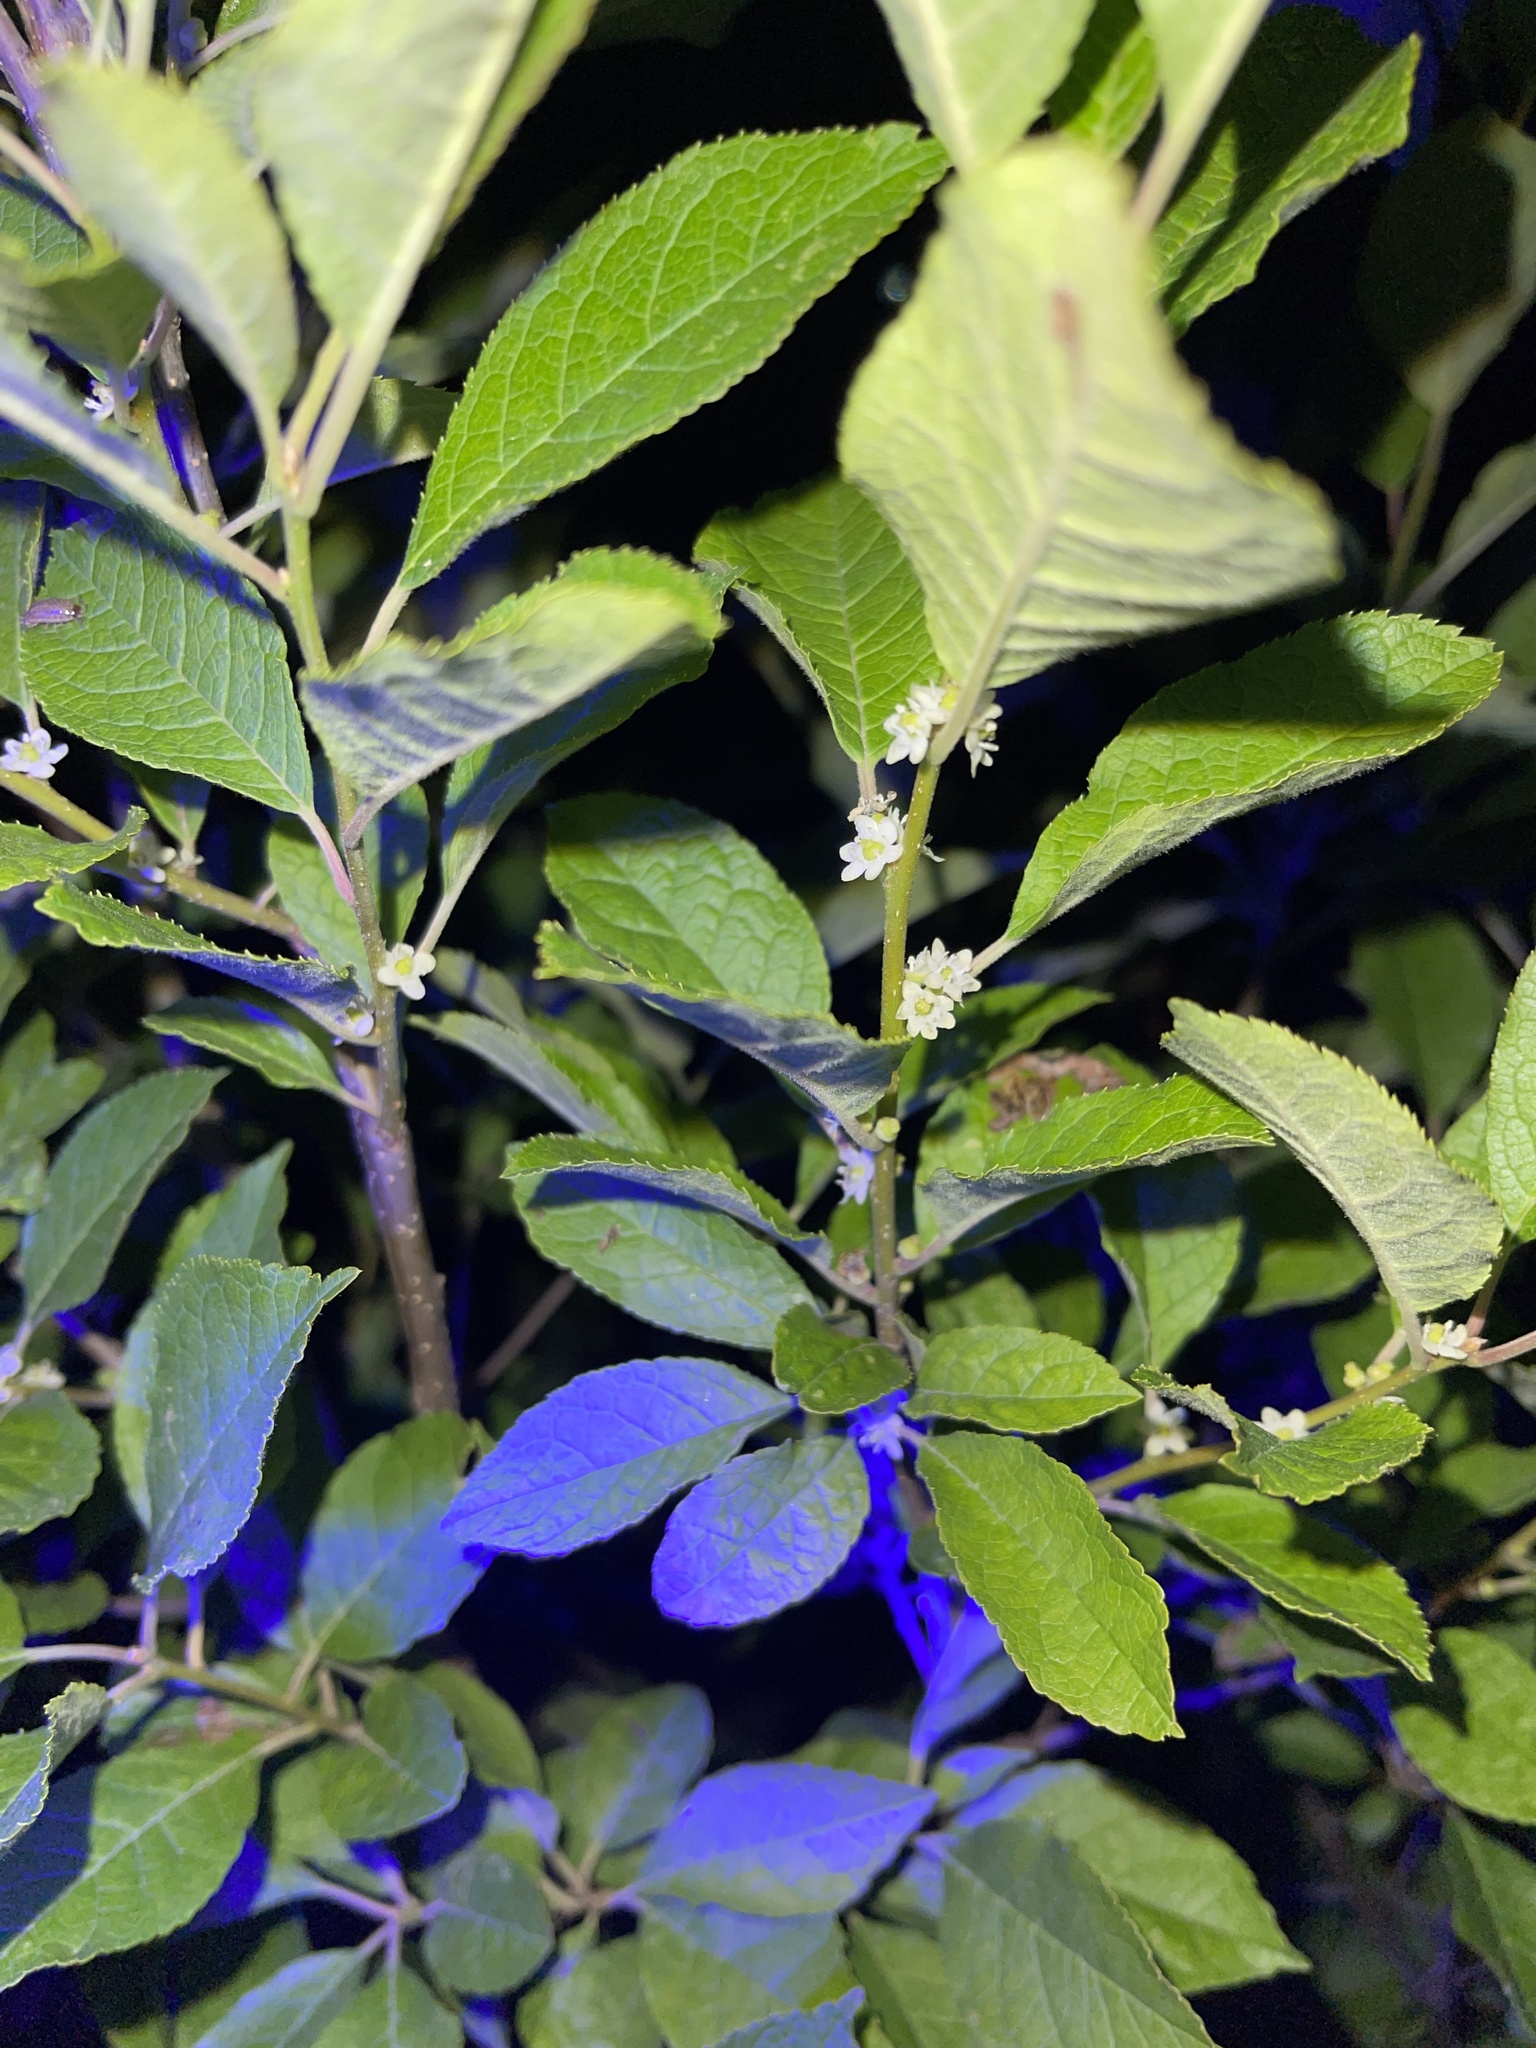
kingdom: Plantae
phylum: Tracheophyta
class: Magnoliopsida
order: Aquifoliales
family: Aquifoliaceae
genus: Ilex
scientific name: Ilex verticillata
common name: Virginia winterberry
